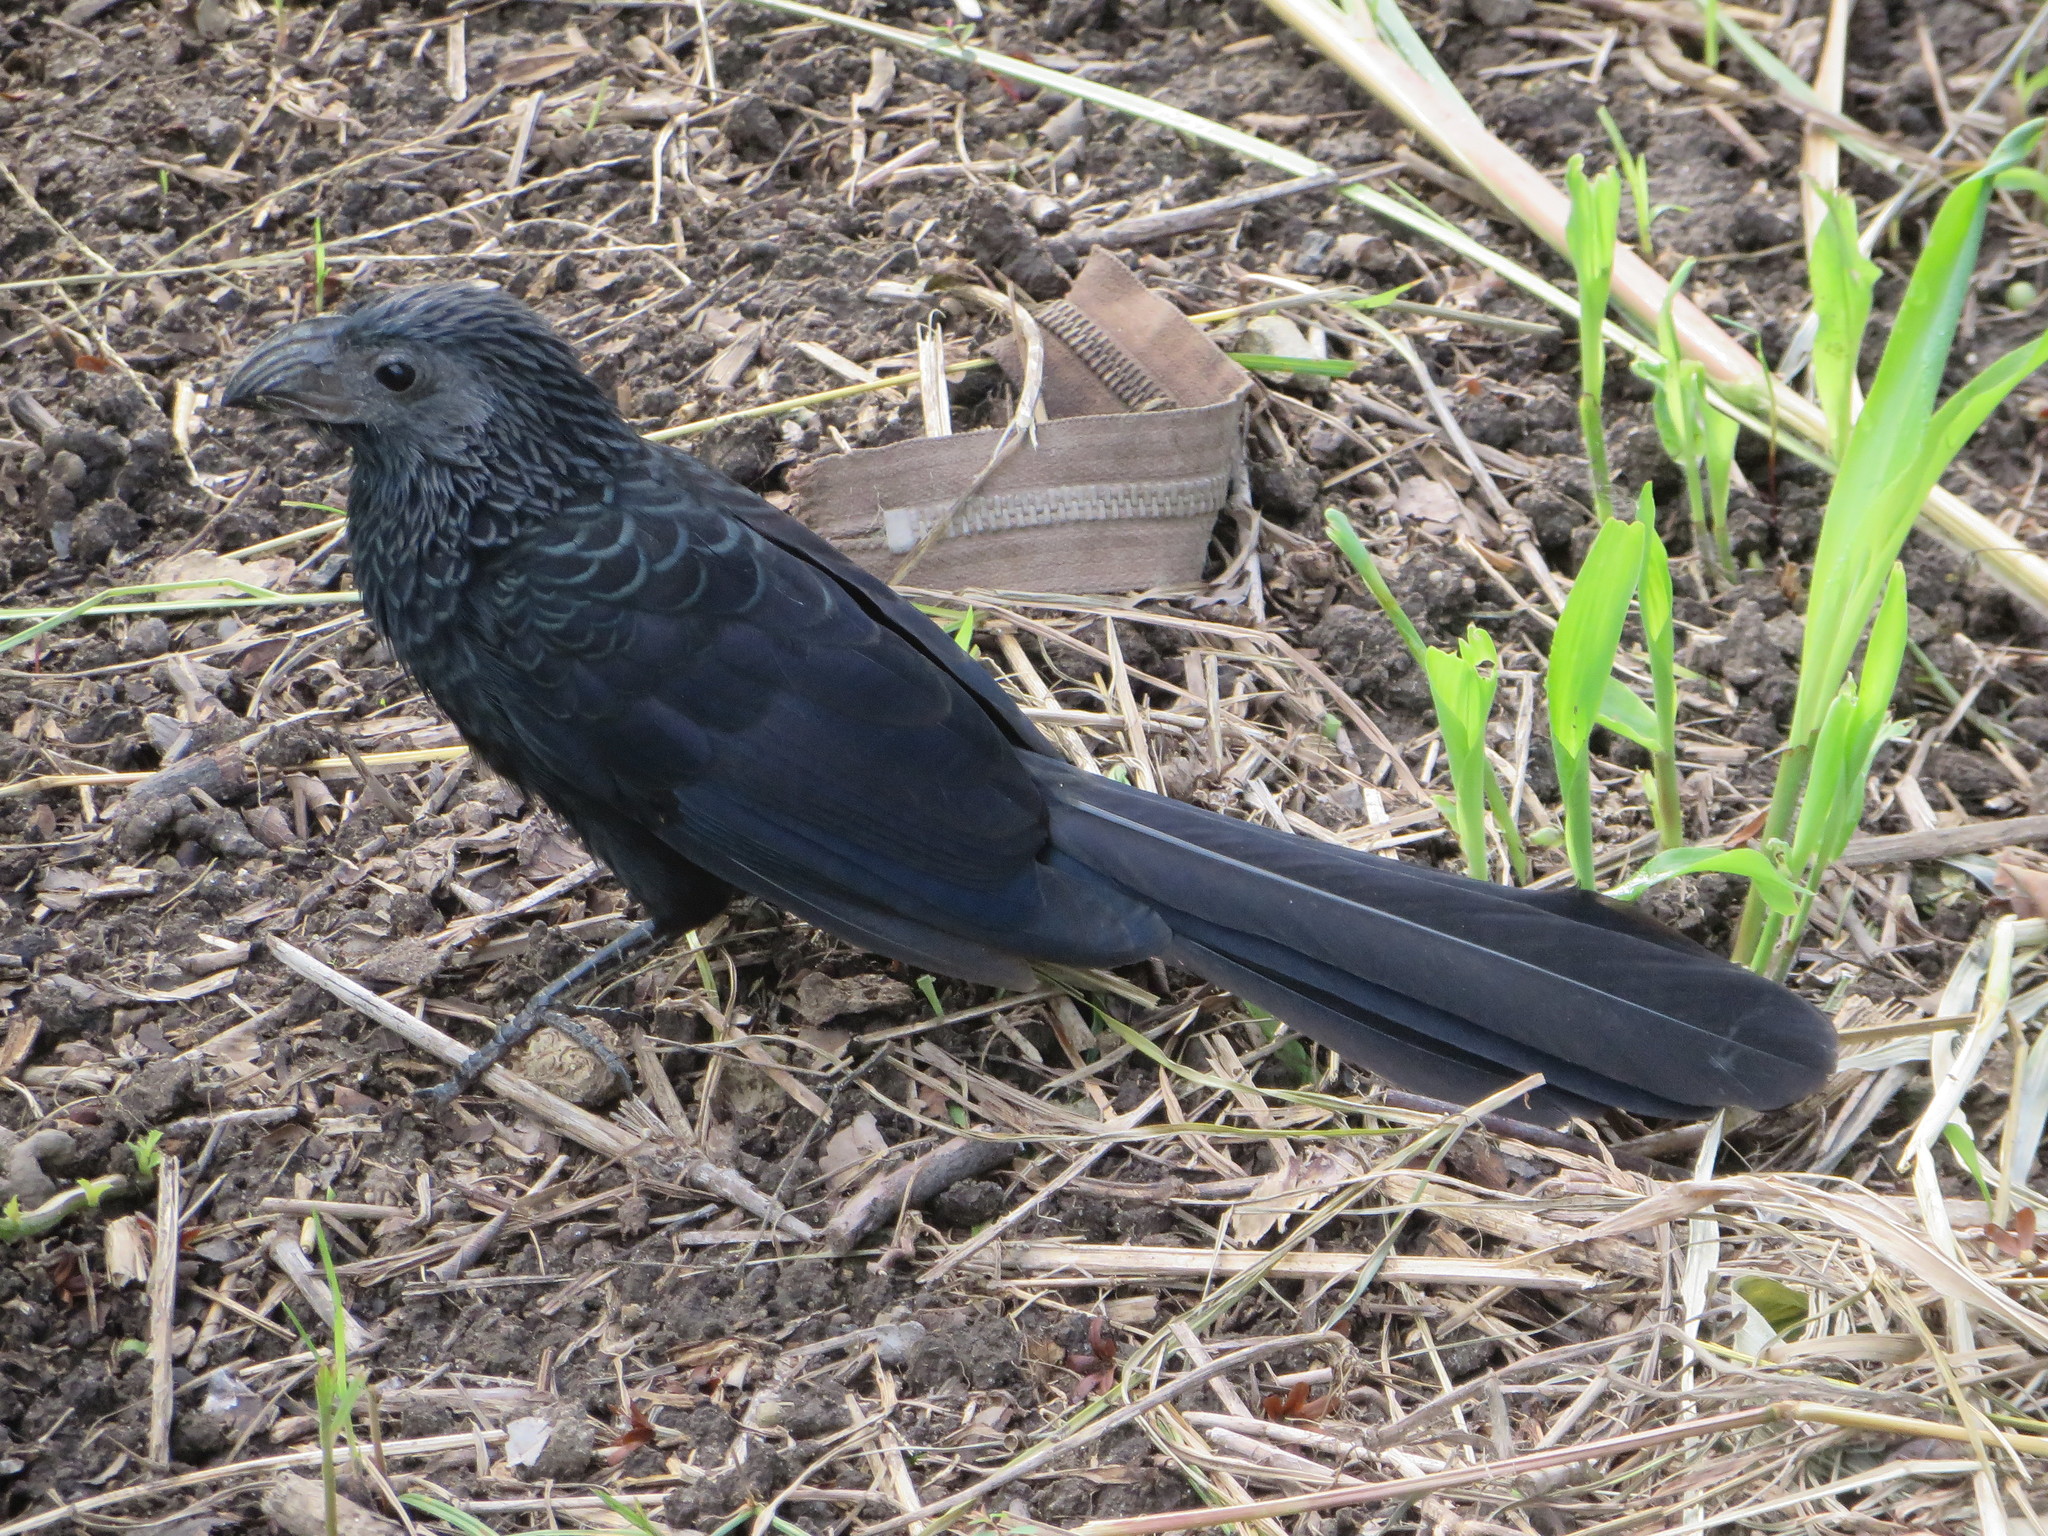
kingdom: Animalia
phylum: Chordata
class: Aves
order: Cuculiformes
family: Cuculidae
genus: Crotophaga
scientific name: Crotophaga sulcirostris
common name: Groove-billed ani
